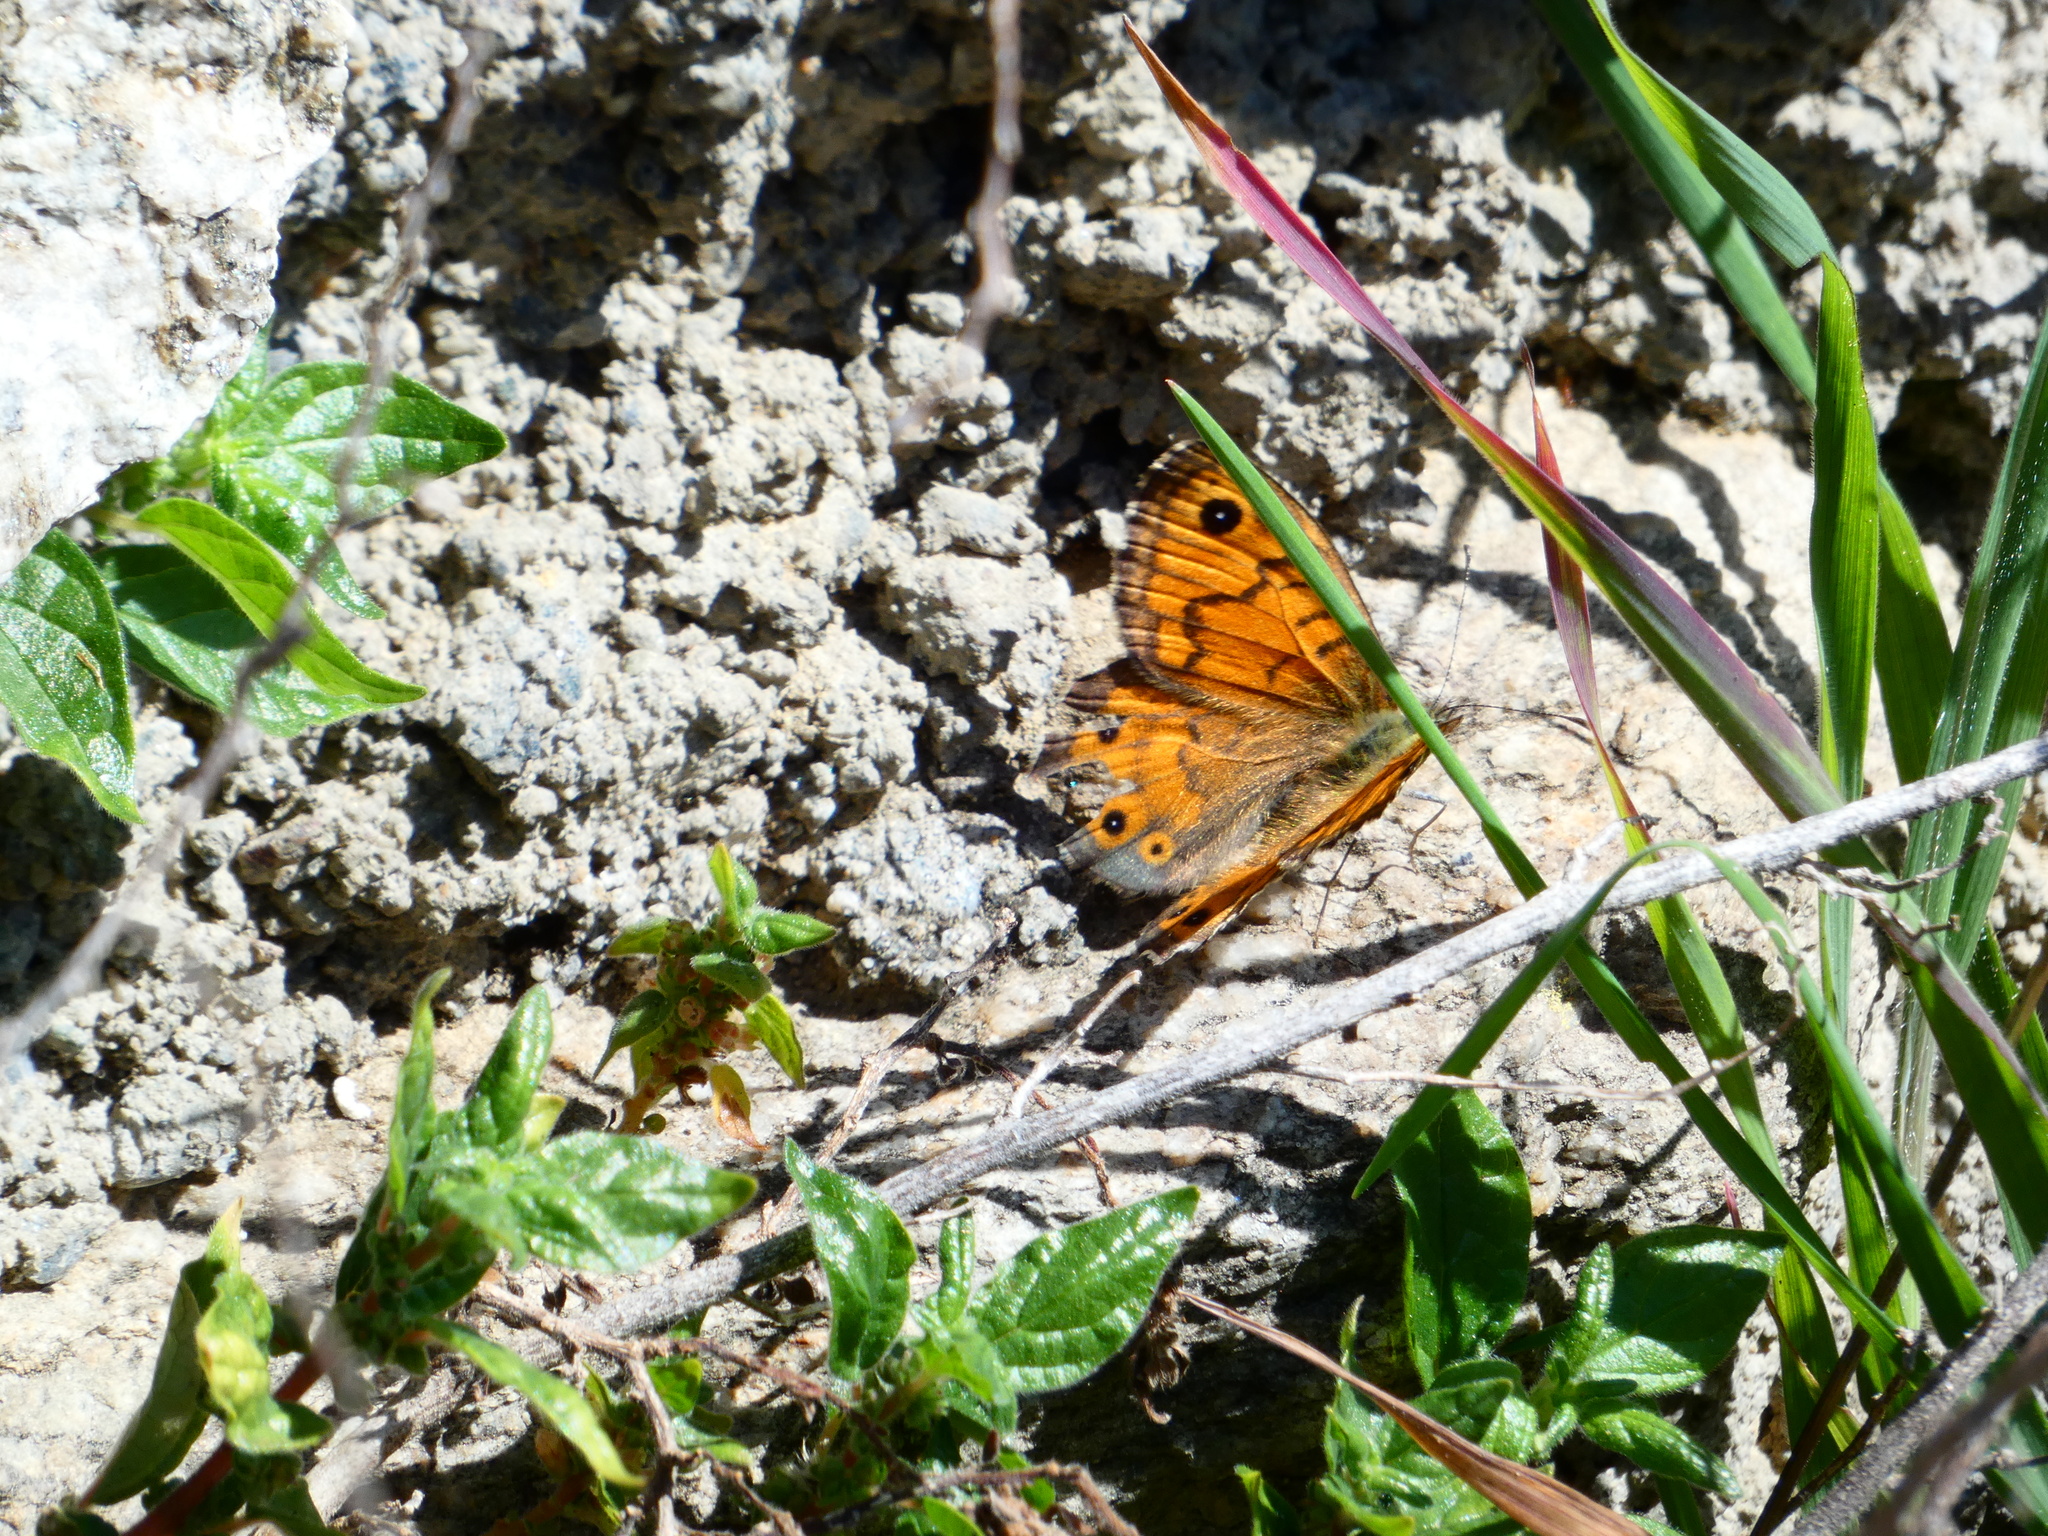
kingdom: Animalia
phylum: Arthropoda
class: Insecta
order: Lepidoptera
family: Nymphalidae
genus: Pararge
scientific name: Pararge Lasiommata megera
